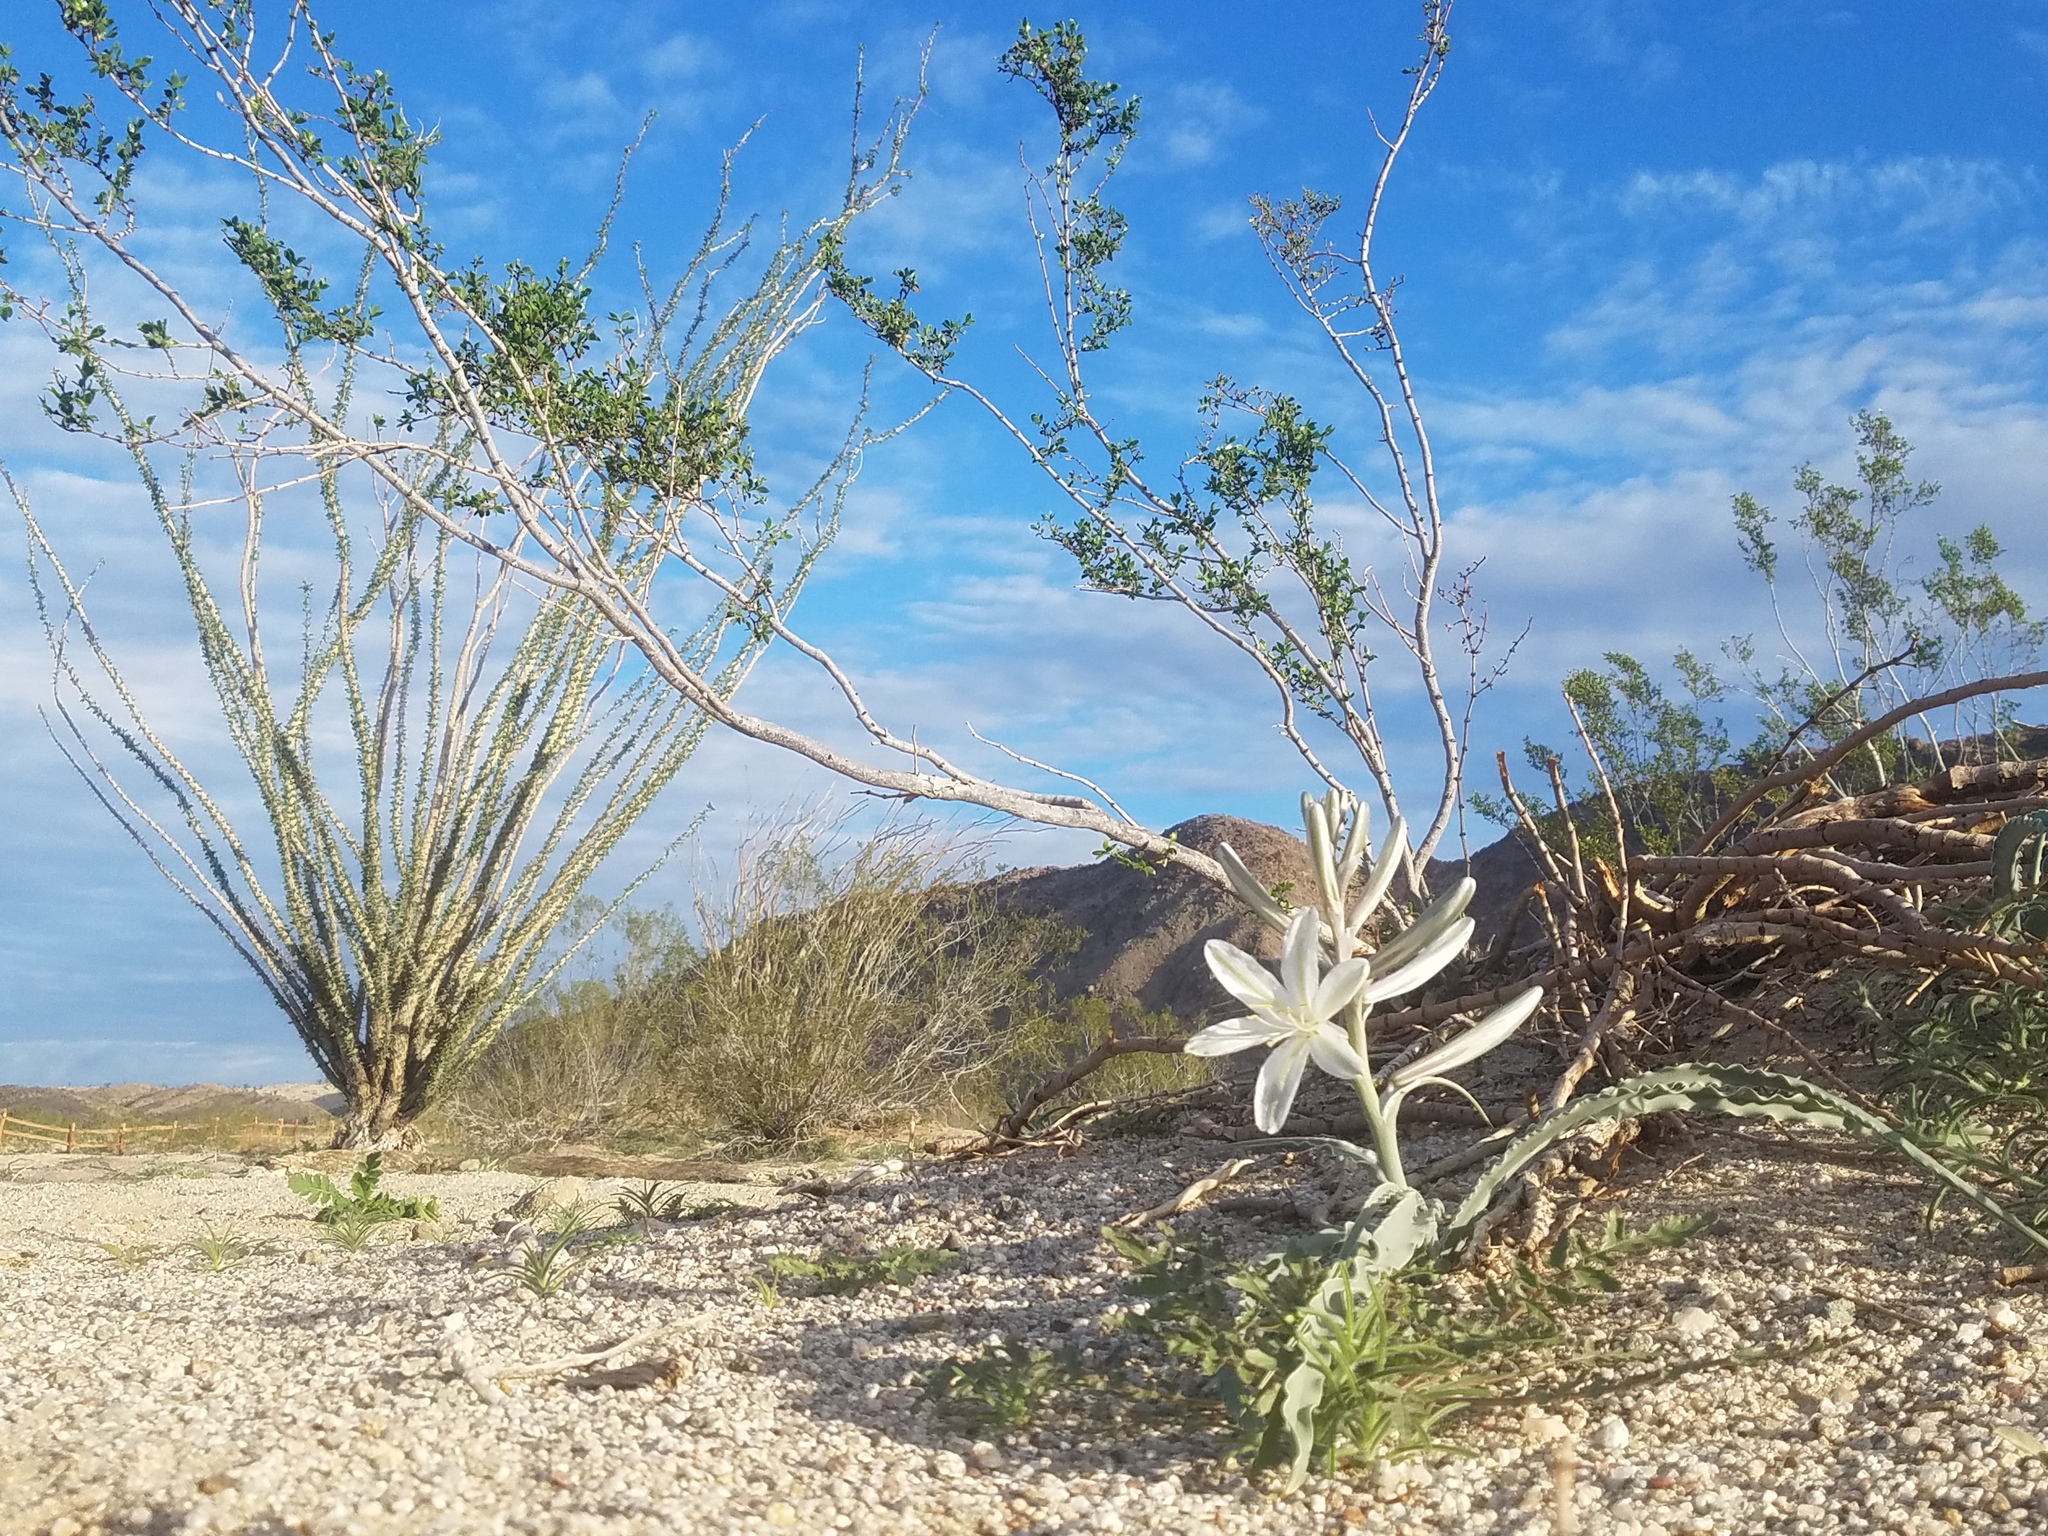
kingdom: Plantae
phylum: Tracheophyta
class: Liliopsida
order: Asparagales
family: Asparagaceae
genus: Hesperocallis
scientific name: Hesperocallis undulata
